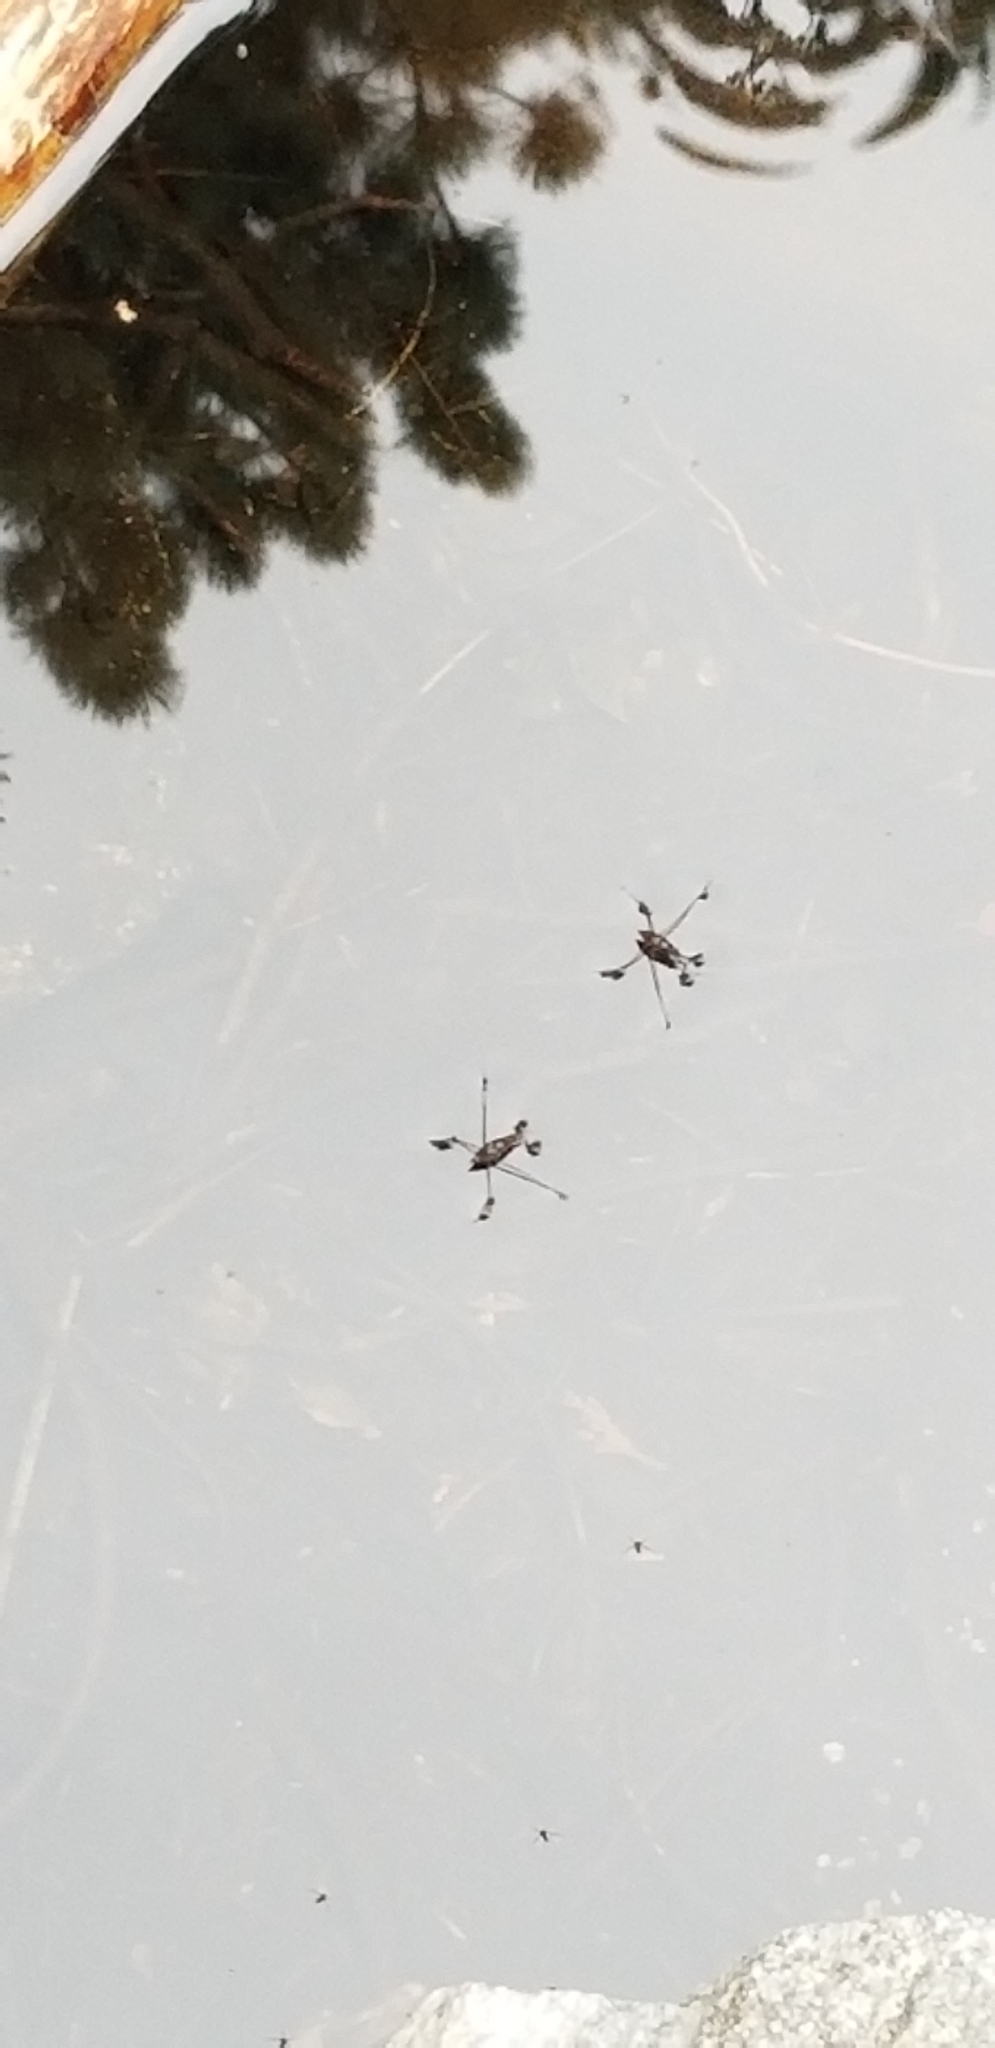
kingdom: Animalia
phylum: Arthropoda
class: Insecta
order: Hemiptera
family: Gerridae
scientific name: Gerridae
